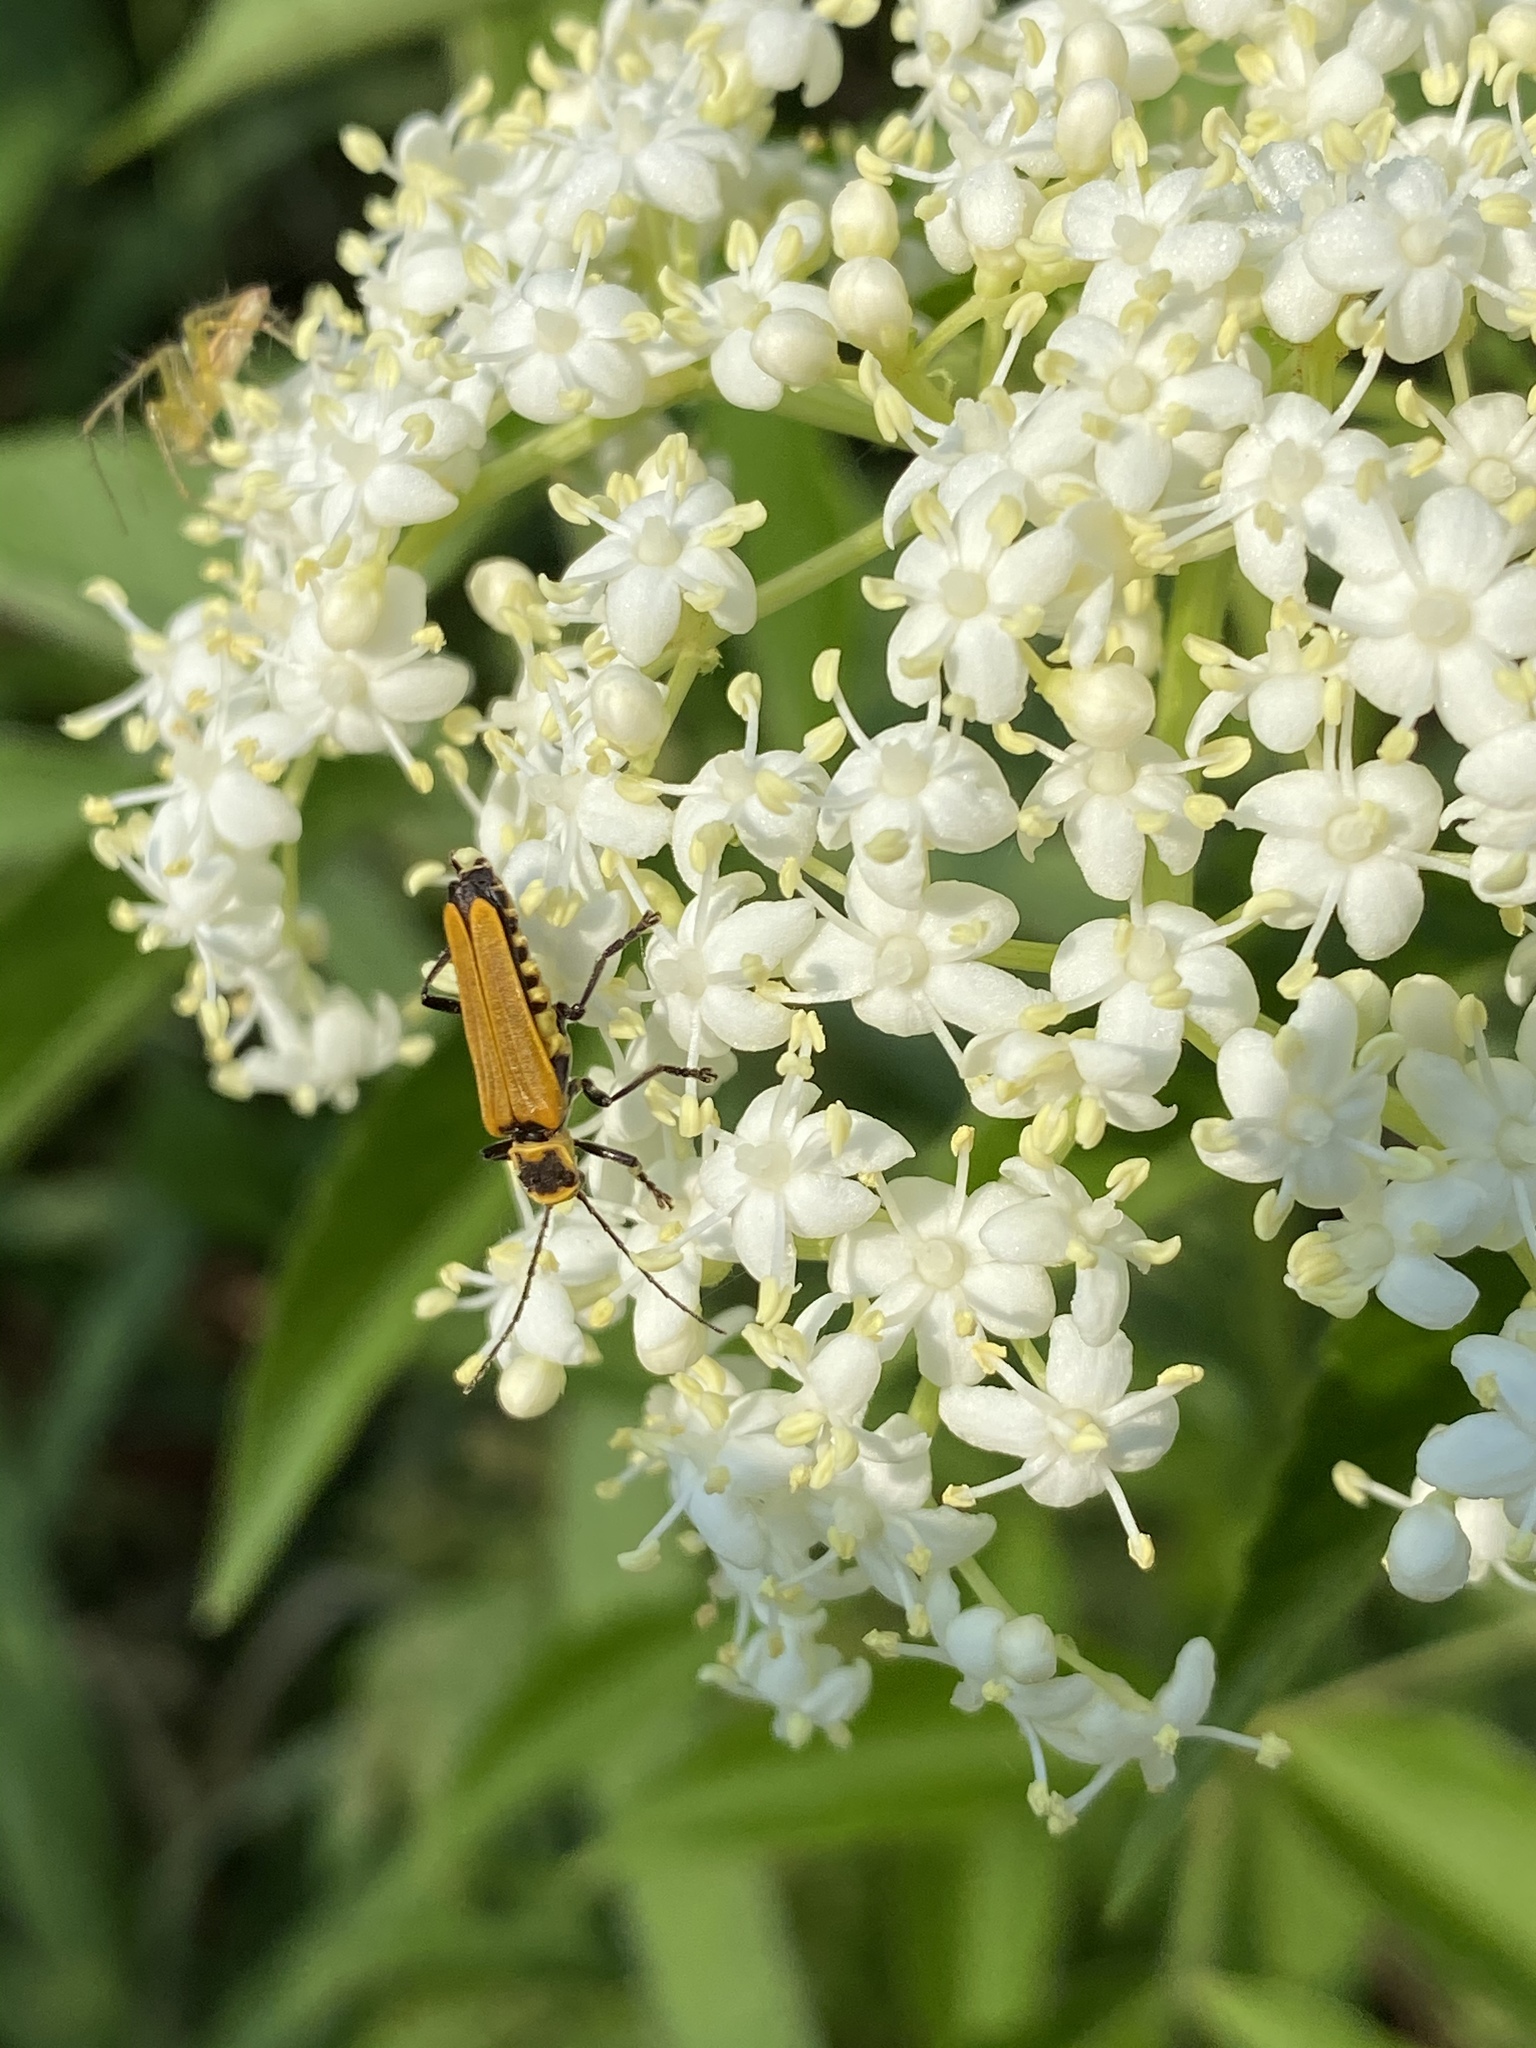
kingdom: Animalia
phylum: Arthropoda
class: Insecta
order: Coleoptera
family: Cantharidae
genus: Chauliognathus
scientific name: Chauliognathus
